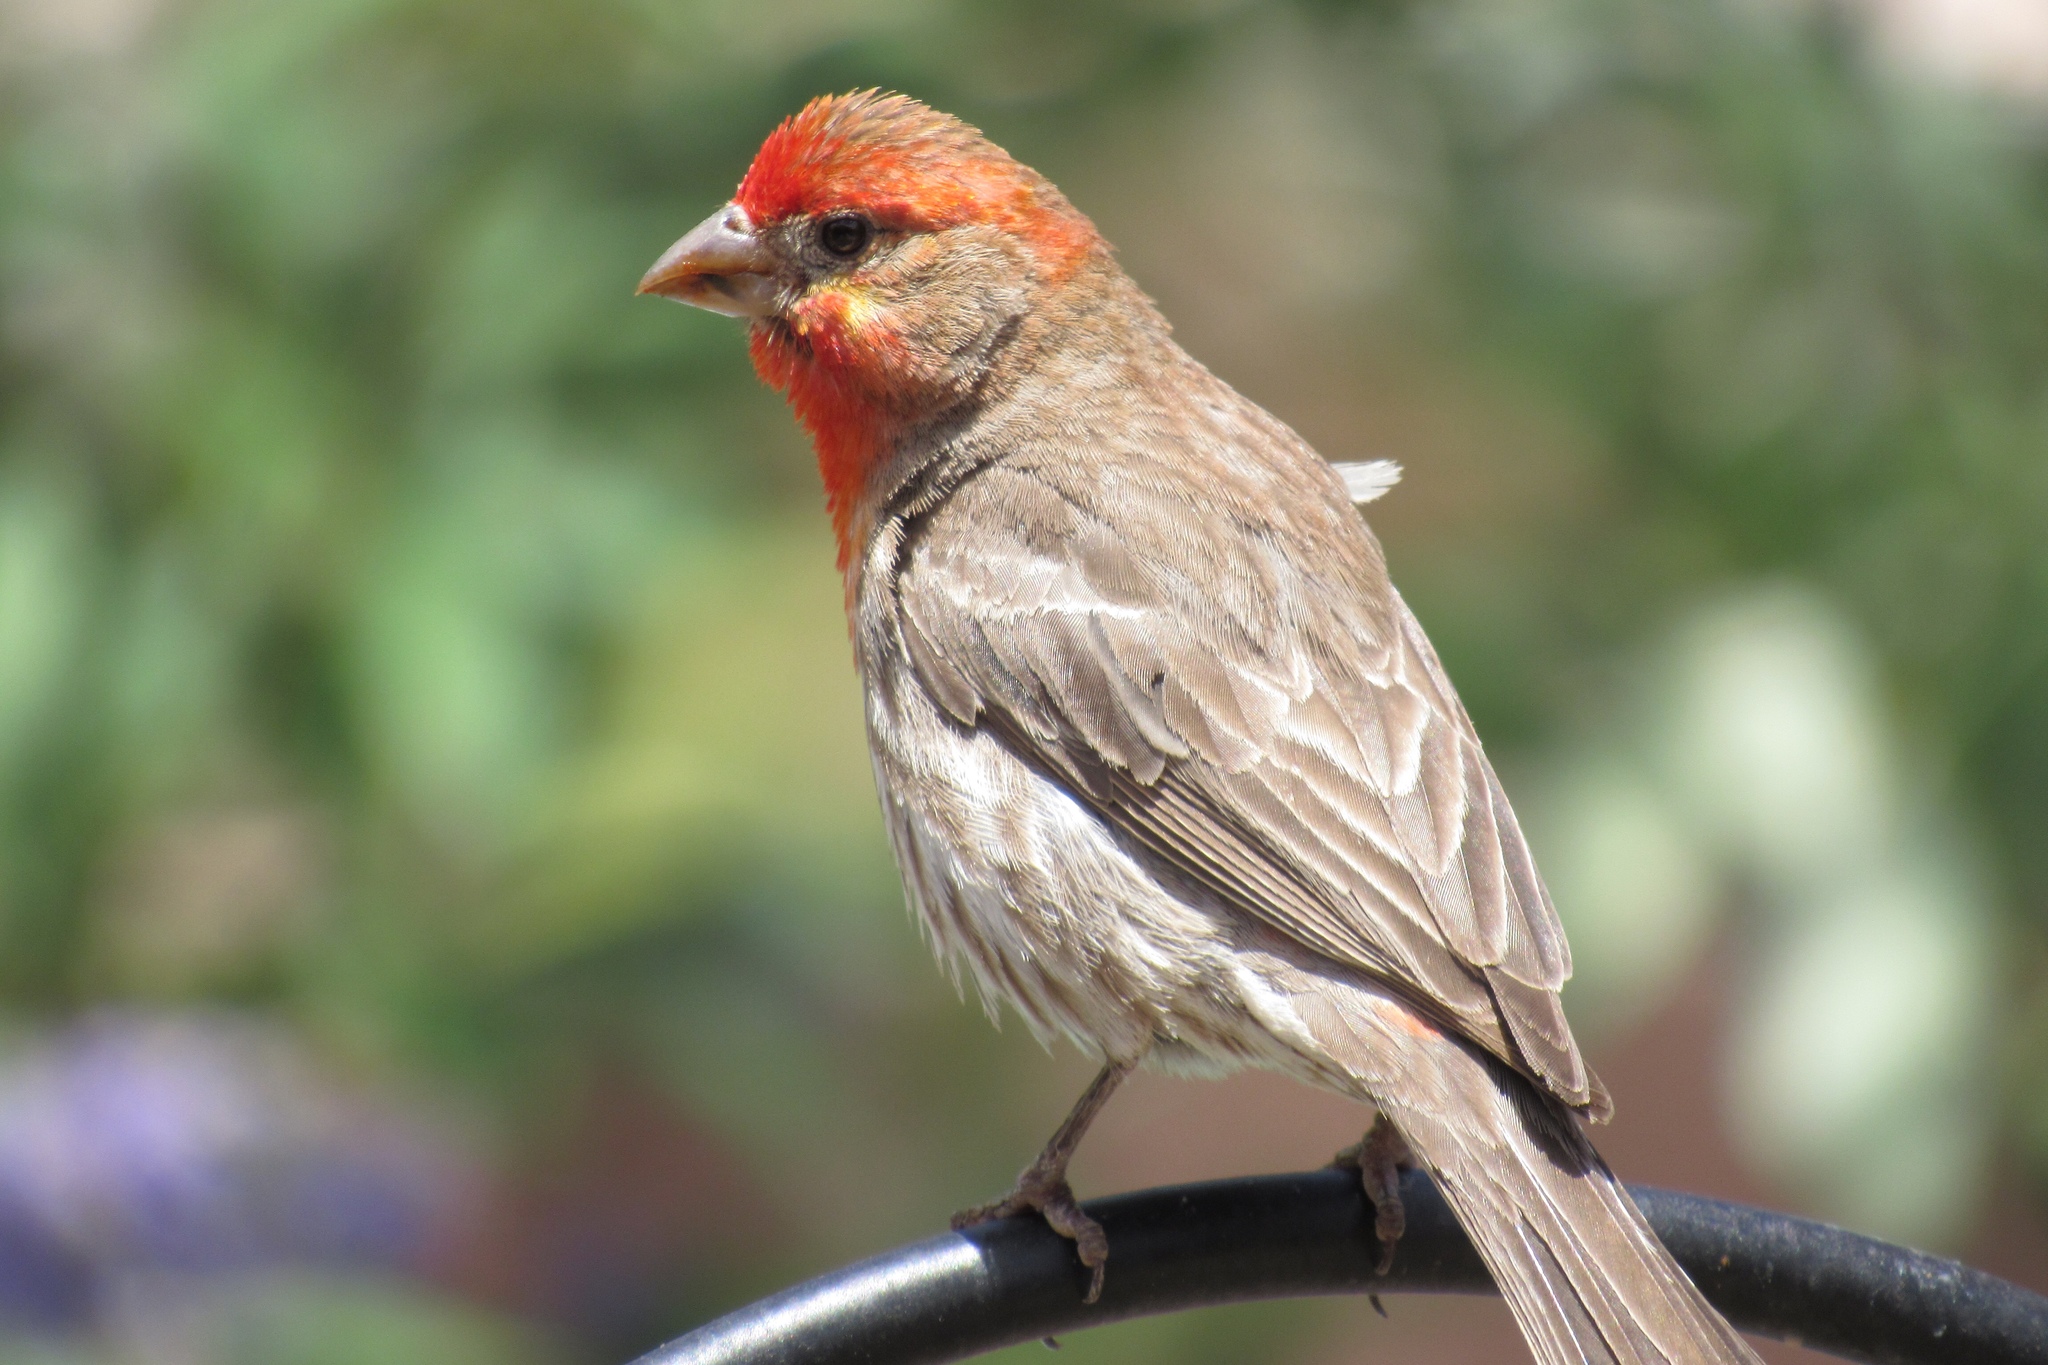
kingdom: Animalia
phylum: Chordata
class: Aves
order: Passeriformes
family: Fringillidae
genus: Haemorhous
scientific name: Haemorhous mexicanus
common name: House finch
